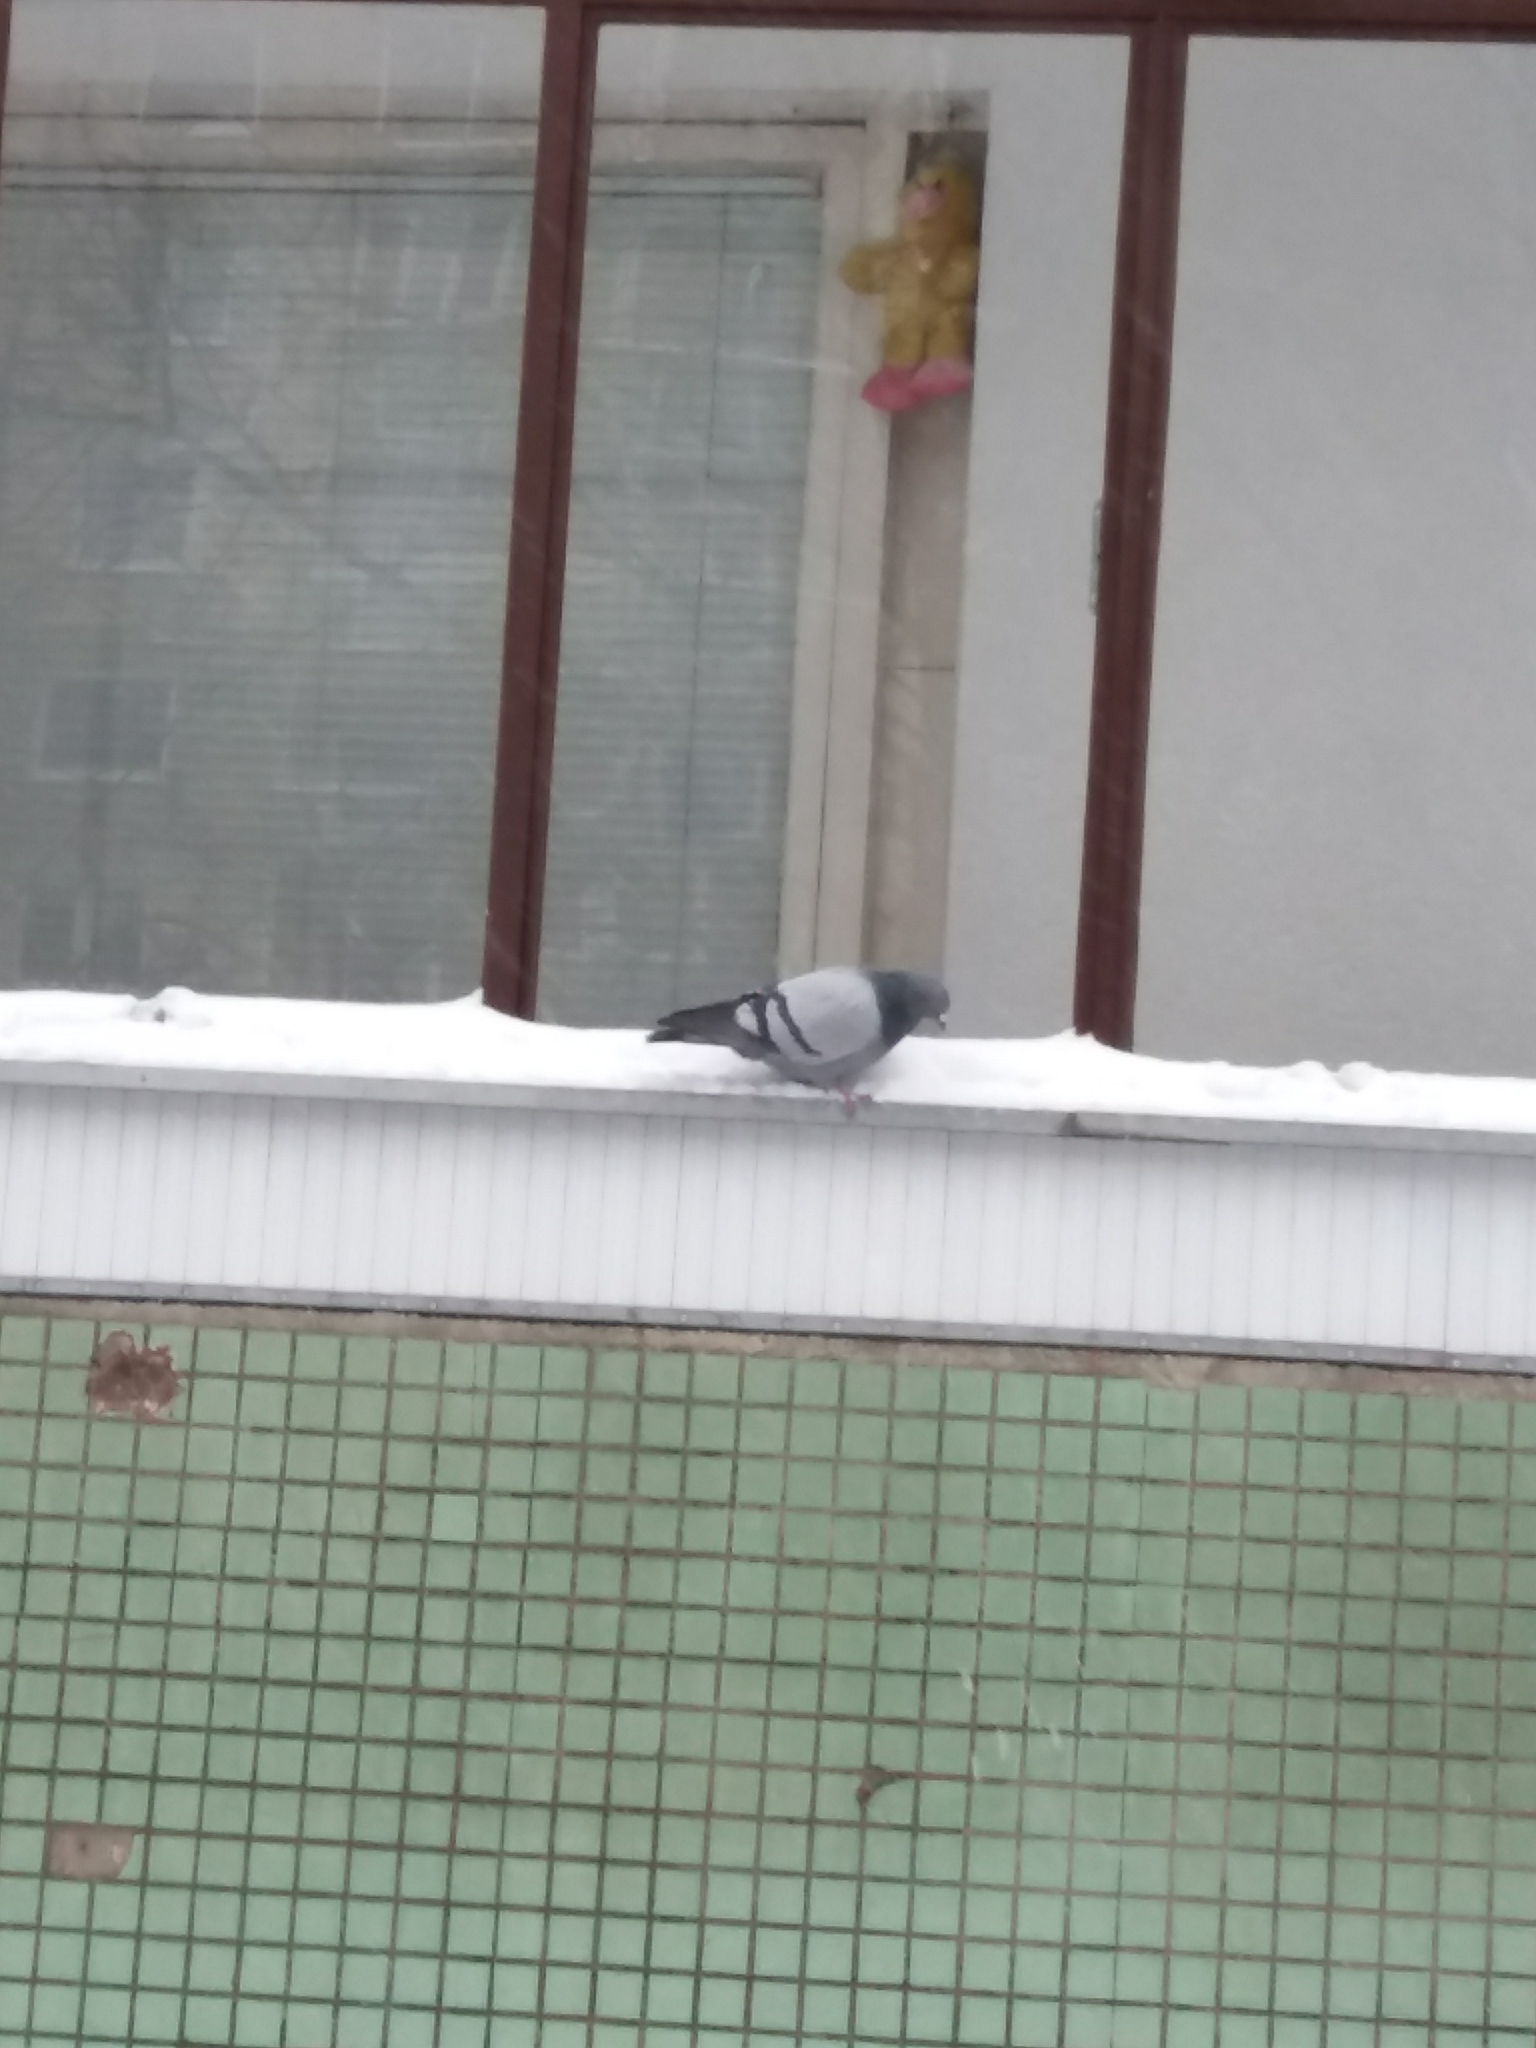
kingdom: Animalia
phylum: Chordata
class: Aves
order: Columbiformes
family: Columbidae
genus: Columba
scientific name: Columba livia
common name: Rock pigeon
